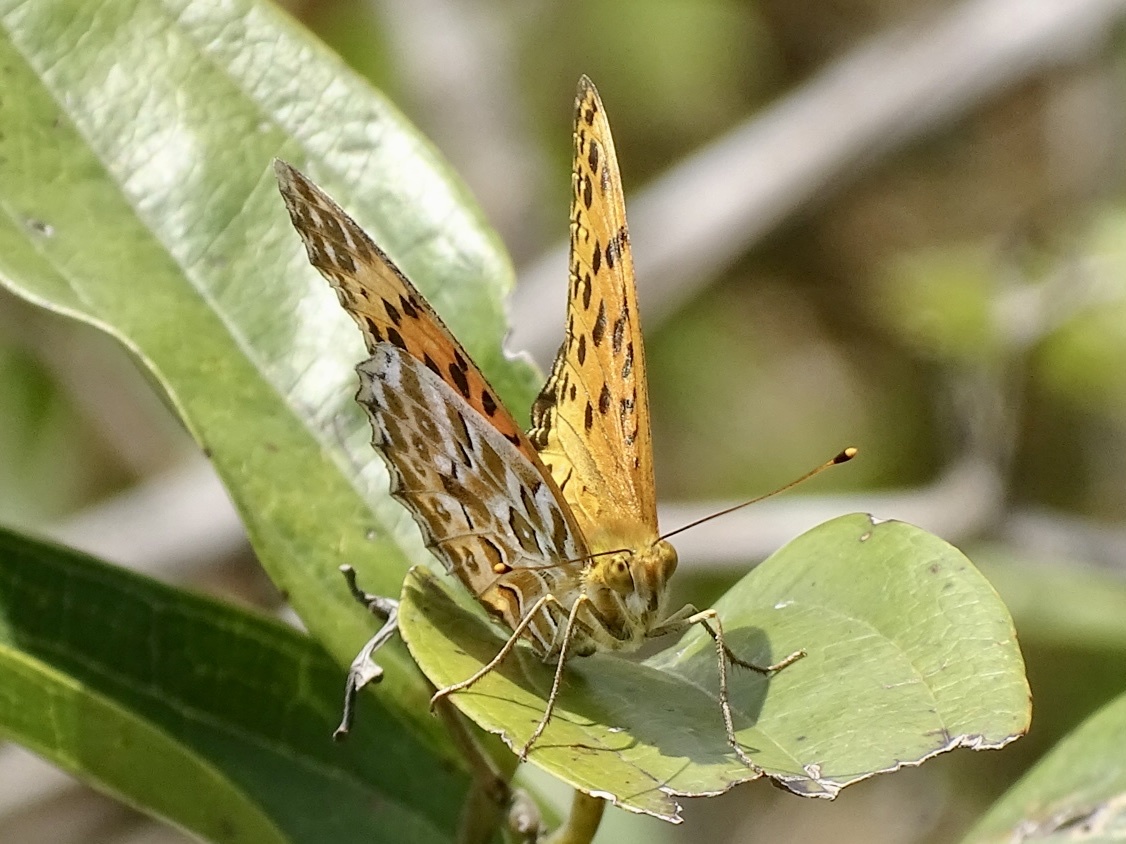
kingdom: Animalia
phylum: Arthropoda
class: Insecta
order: Lepidoptera
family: Nymphalidae
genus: Argynnis
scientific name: Argynnis hyperbius
